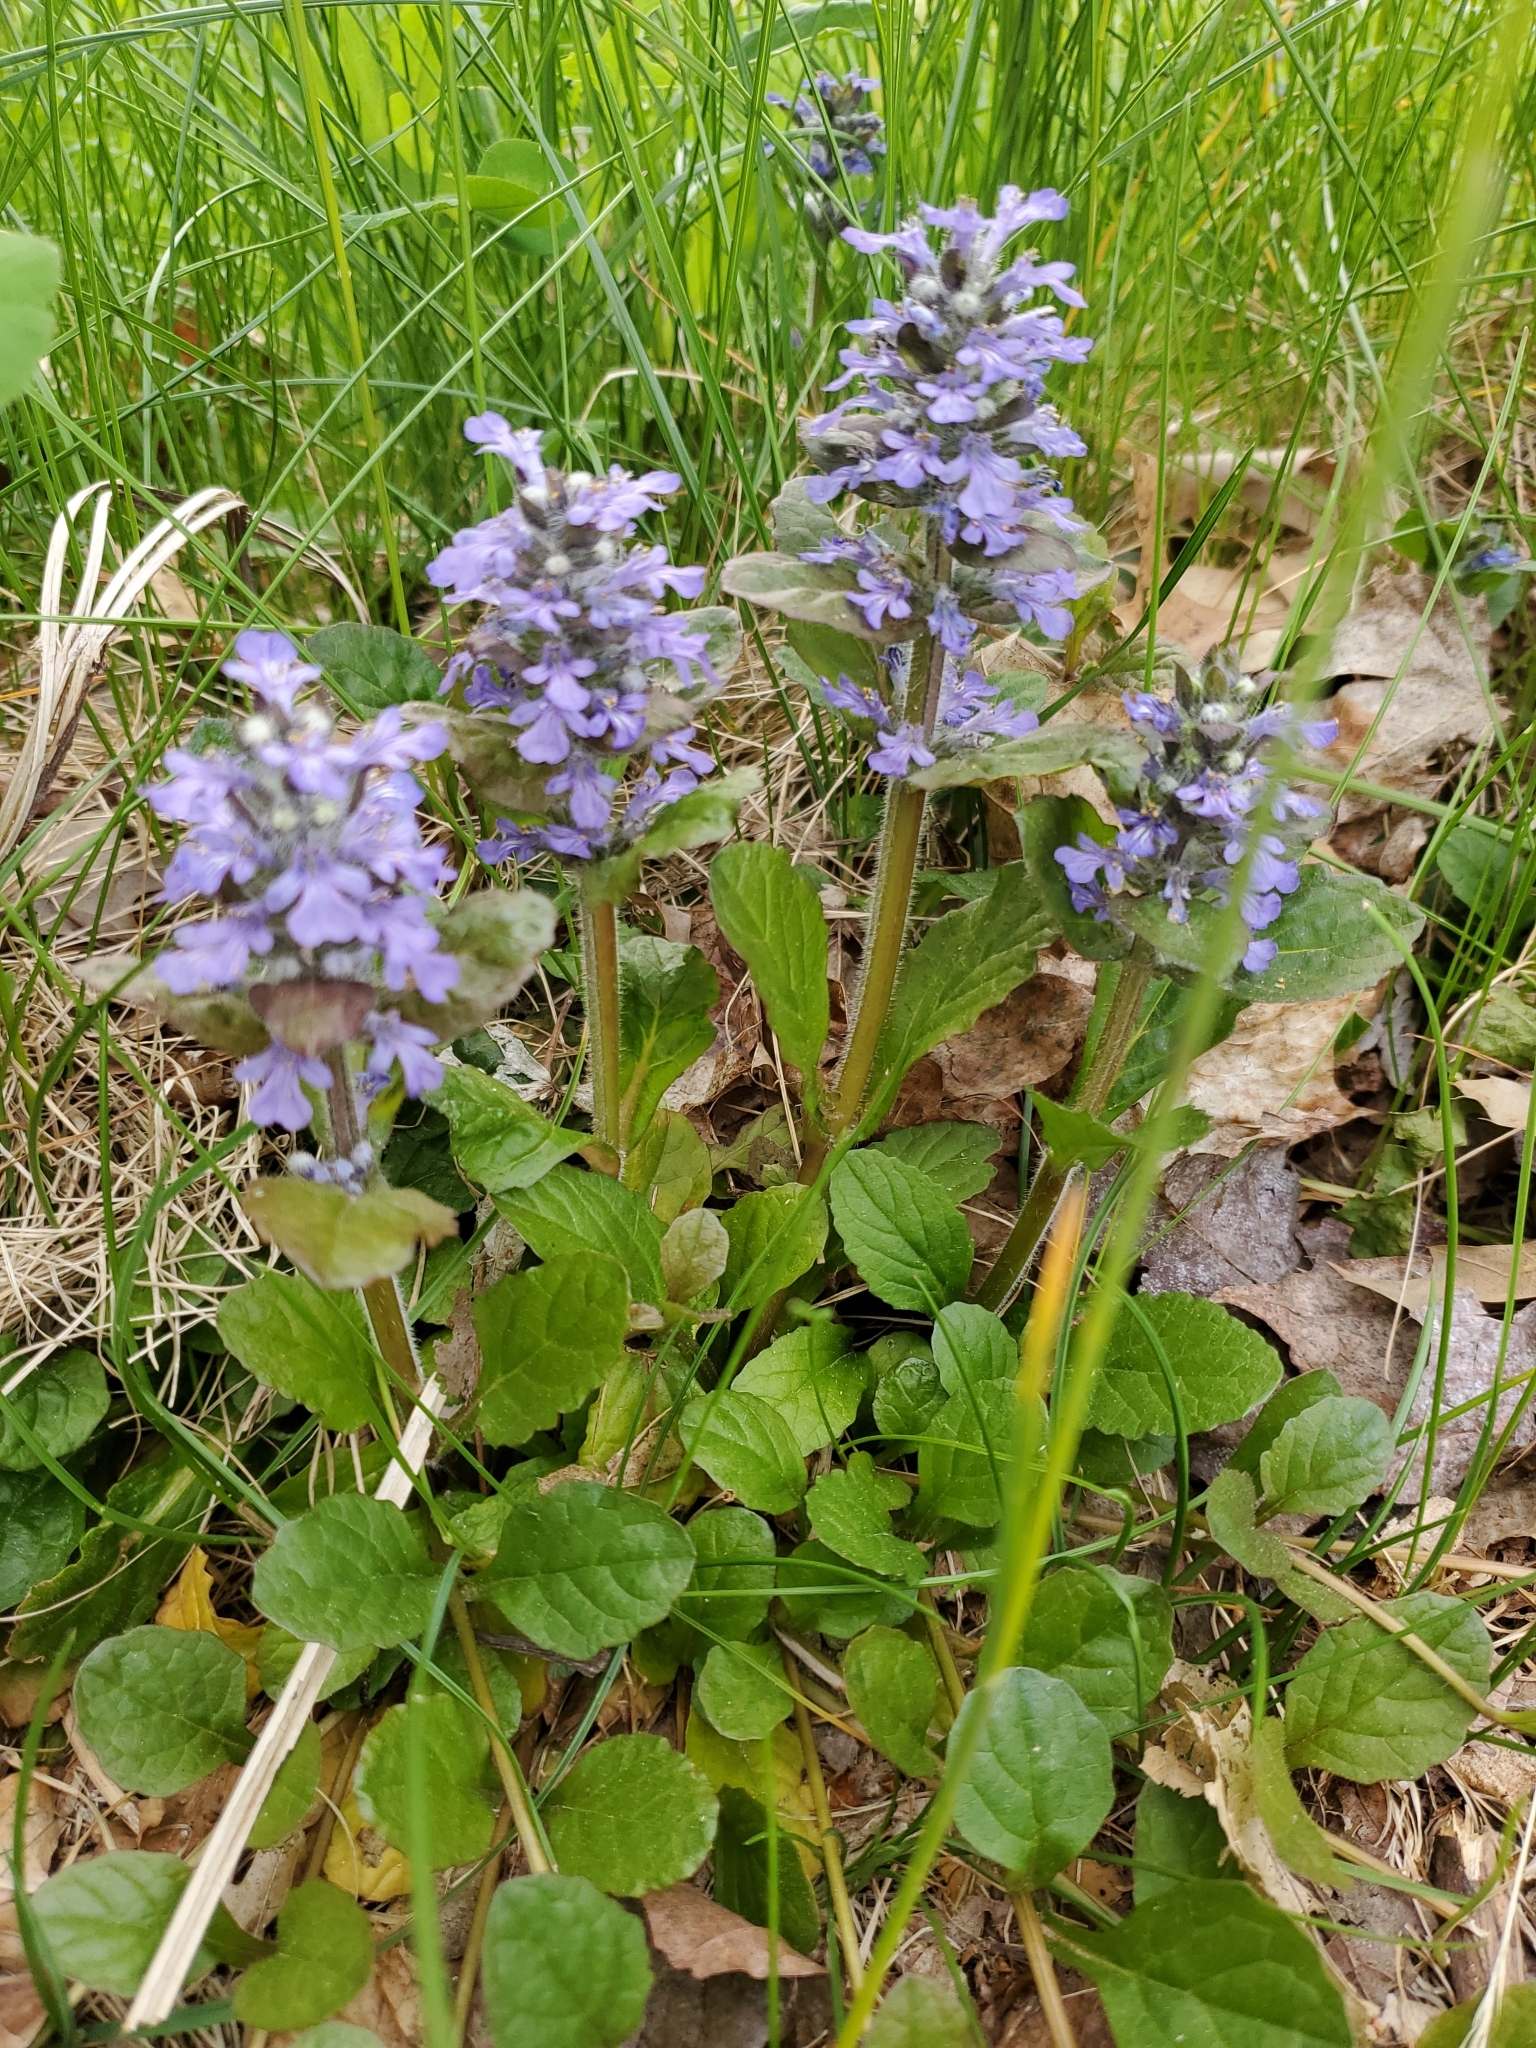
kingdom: Plantae
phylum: Tracheophyta
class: Magnoliopsida
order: Lamiales
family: Lamiaceae
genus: Ajuga
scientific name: Ajuga reptans
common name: Bugle
